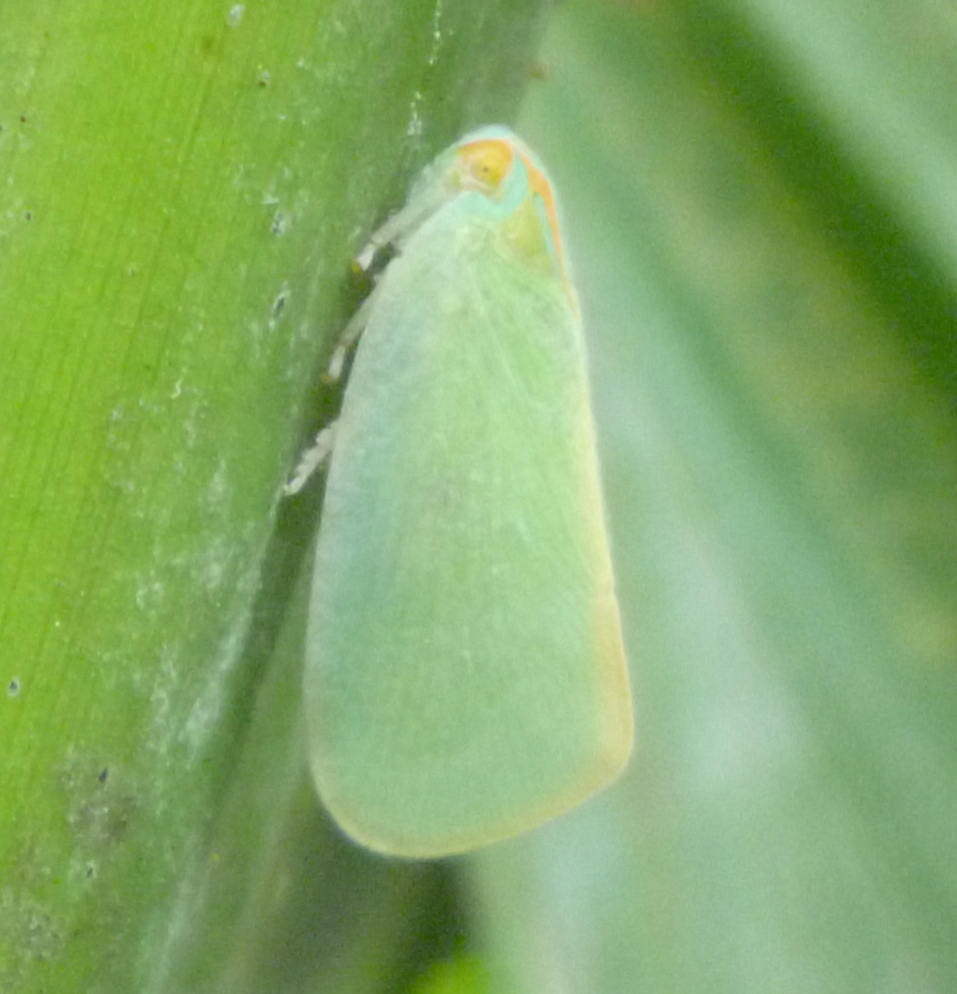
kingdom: Animalia
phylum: Arthropoda
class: Insecta
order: Hemiptera
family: Flatidae
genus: Ormenaria
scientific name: Ormenaria rufifascia
